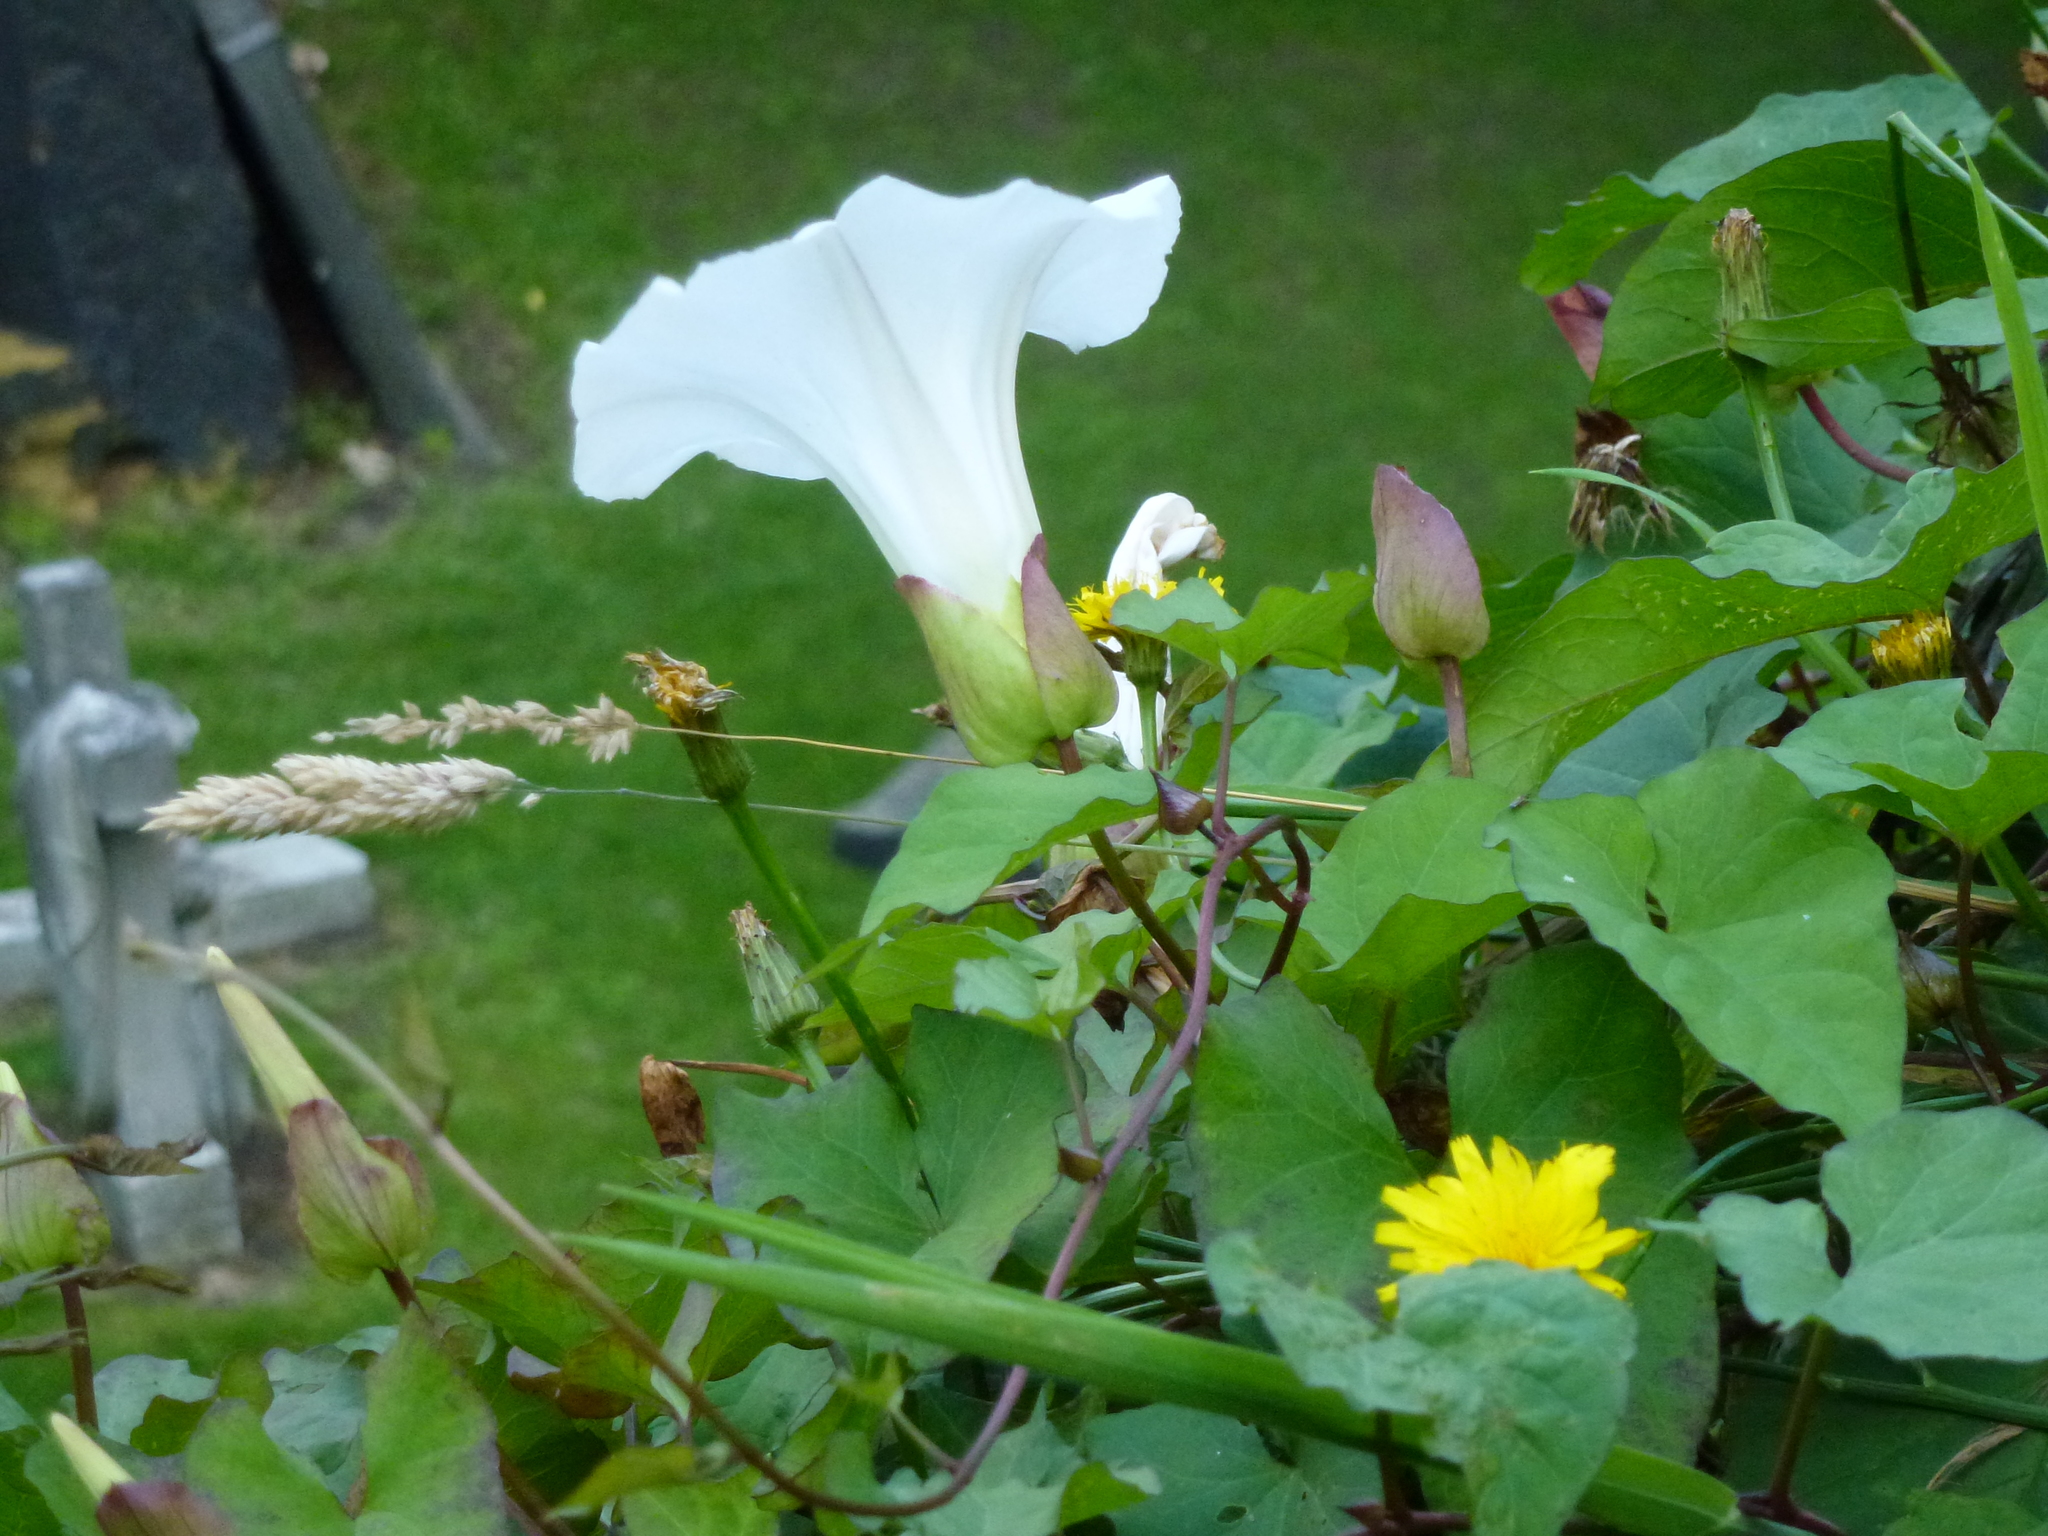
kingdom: Plantae
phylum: Tracheophyta
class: Magnoliopsida
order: Solanales
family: Convolvulaceae
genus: Calystegia
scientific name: Calystegia silvatica
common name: Large bindweed
